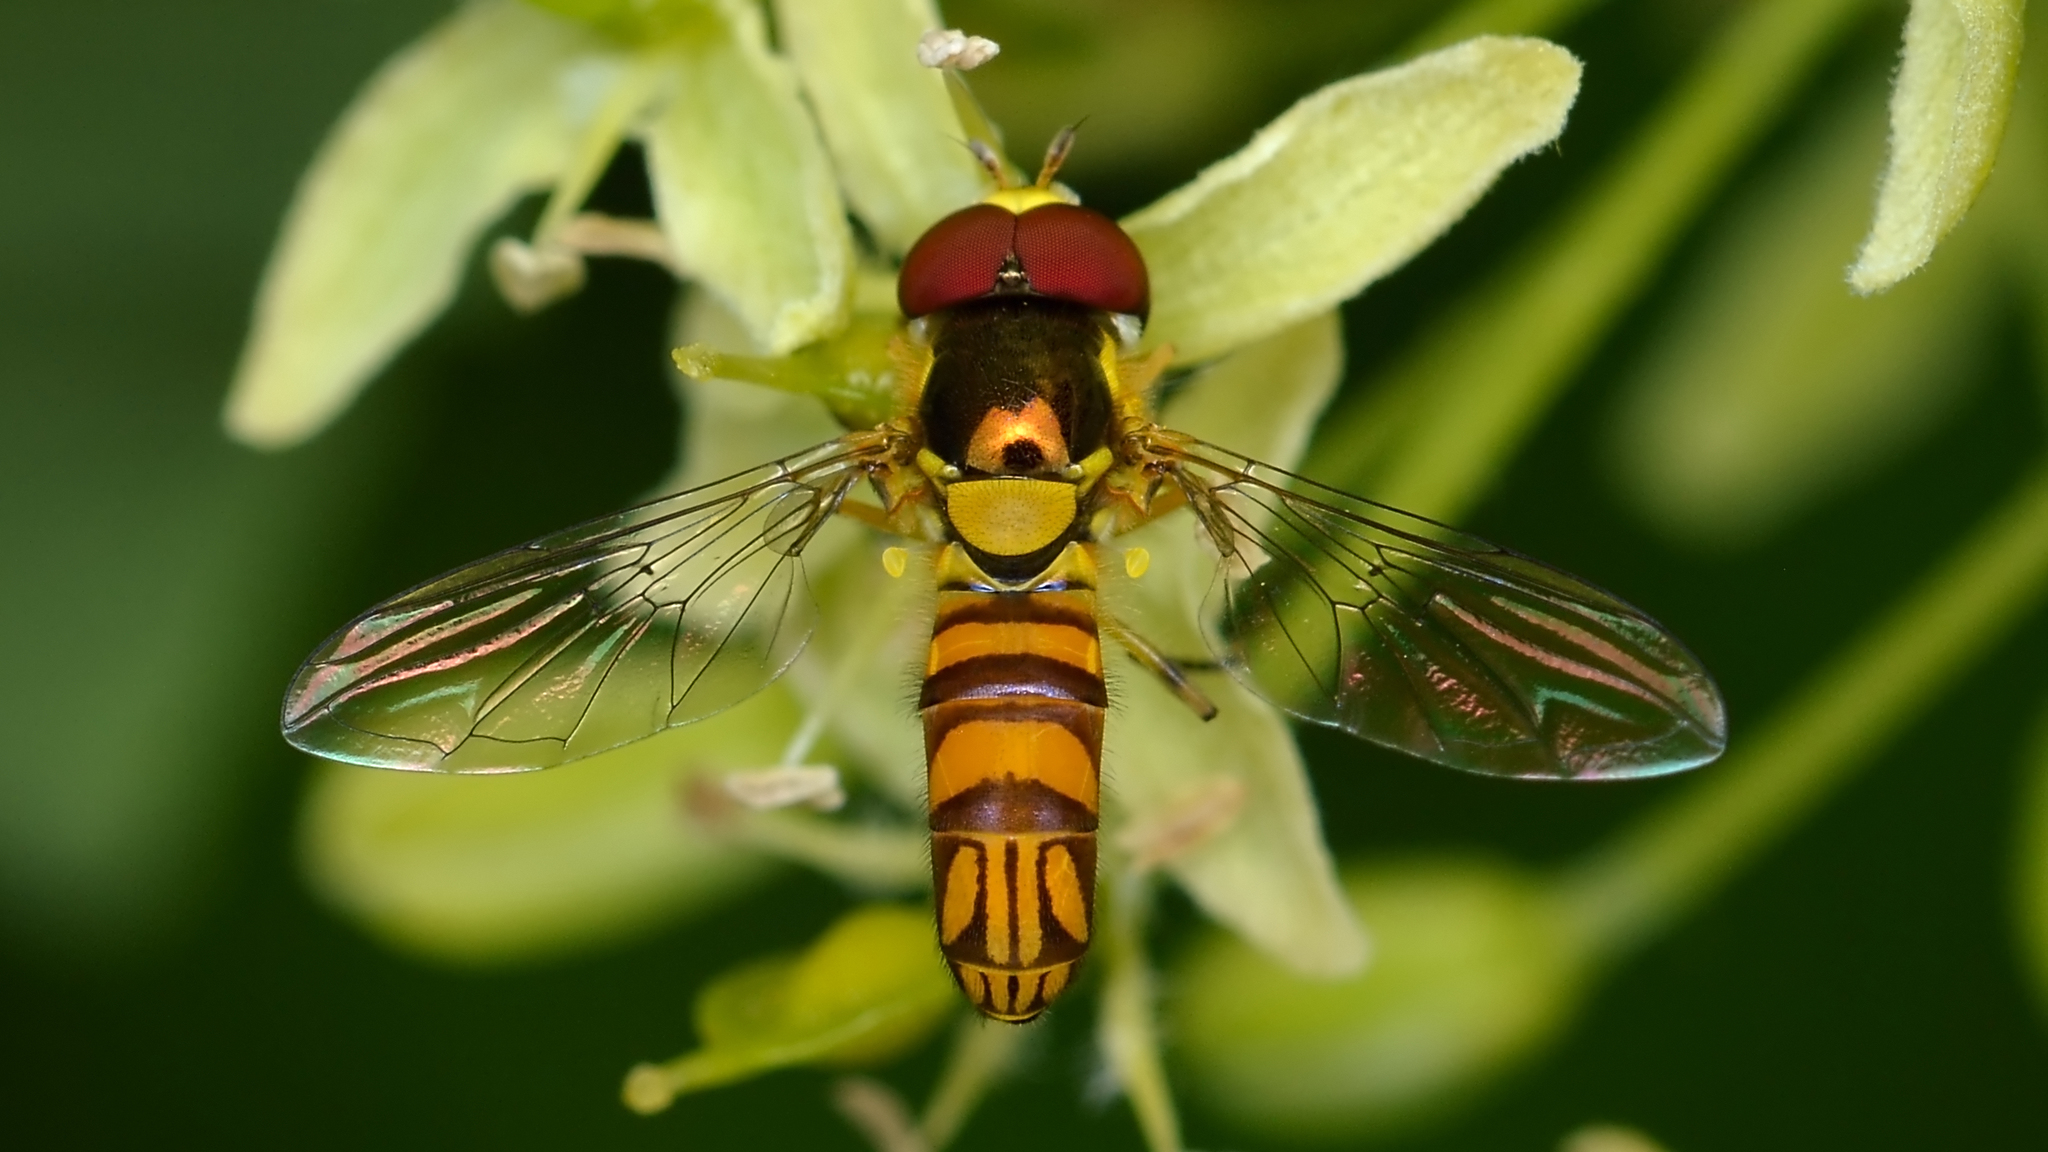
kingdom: Animalia
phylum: Arthropoda
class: Insecta
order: Diptera
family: Syrphidae
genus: Allograpta
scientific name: Allograpta obliqua
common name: Common oblique syrphid
